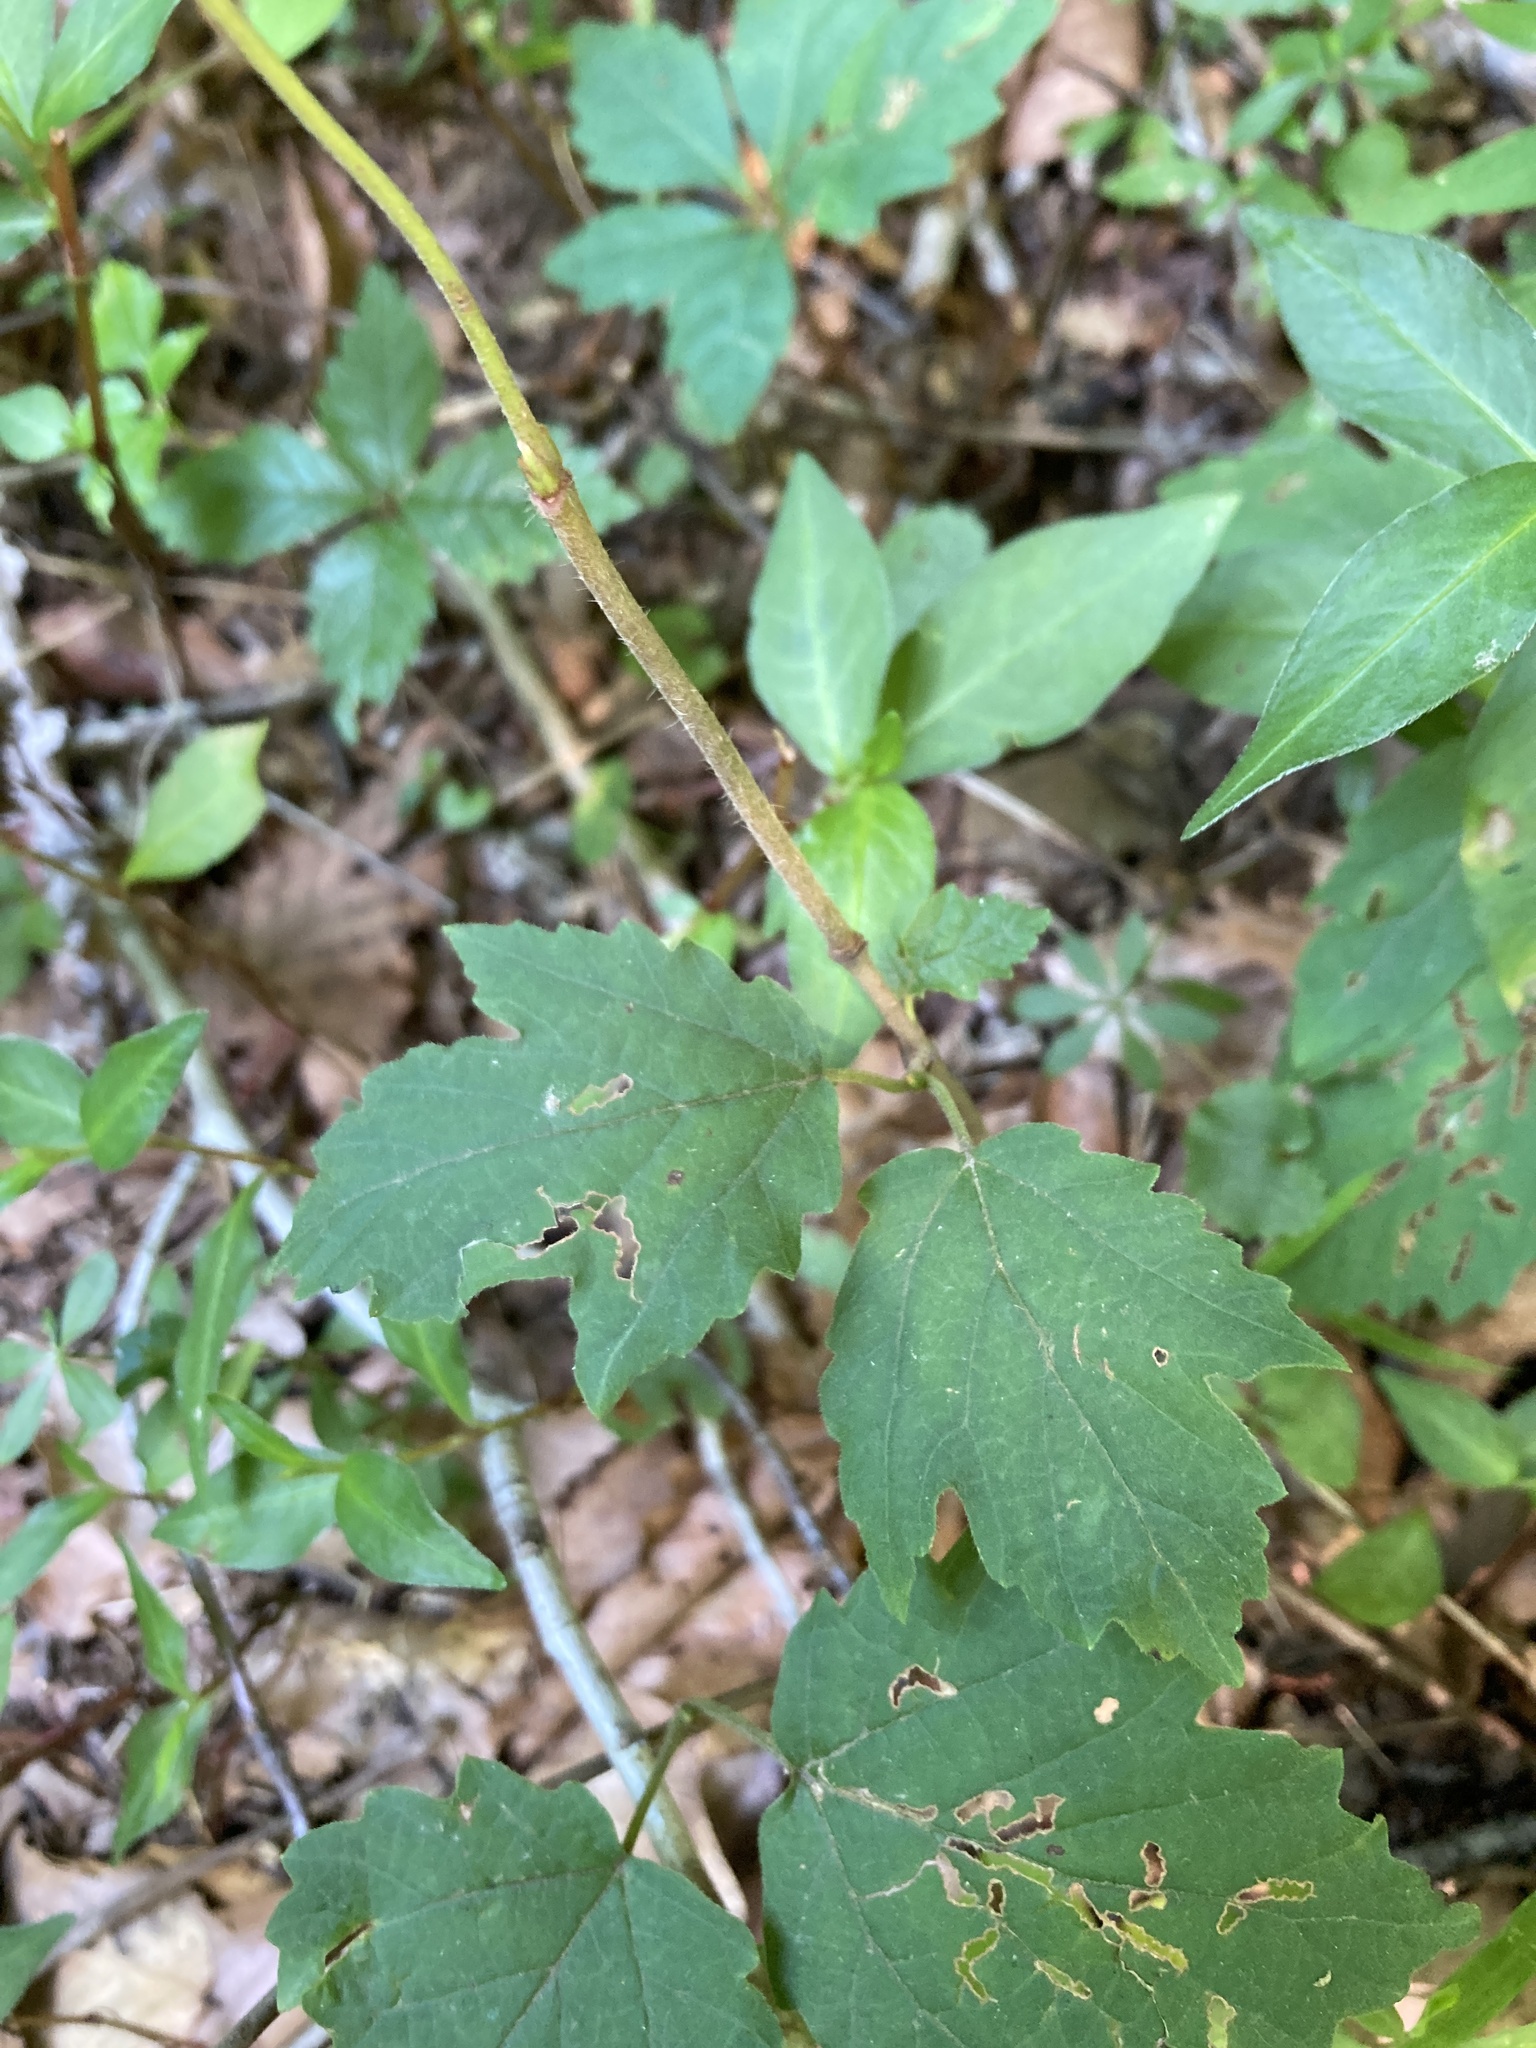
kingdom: Plantae
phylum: Tracheophyta
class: Magnoliopsida
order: Dipsacales
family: Viburnaceae
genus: Viburnum
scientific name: Viburnum acerifolium
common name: Dockmackie
